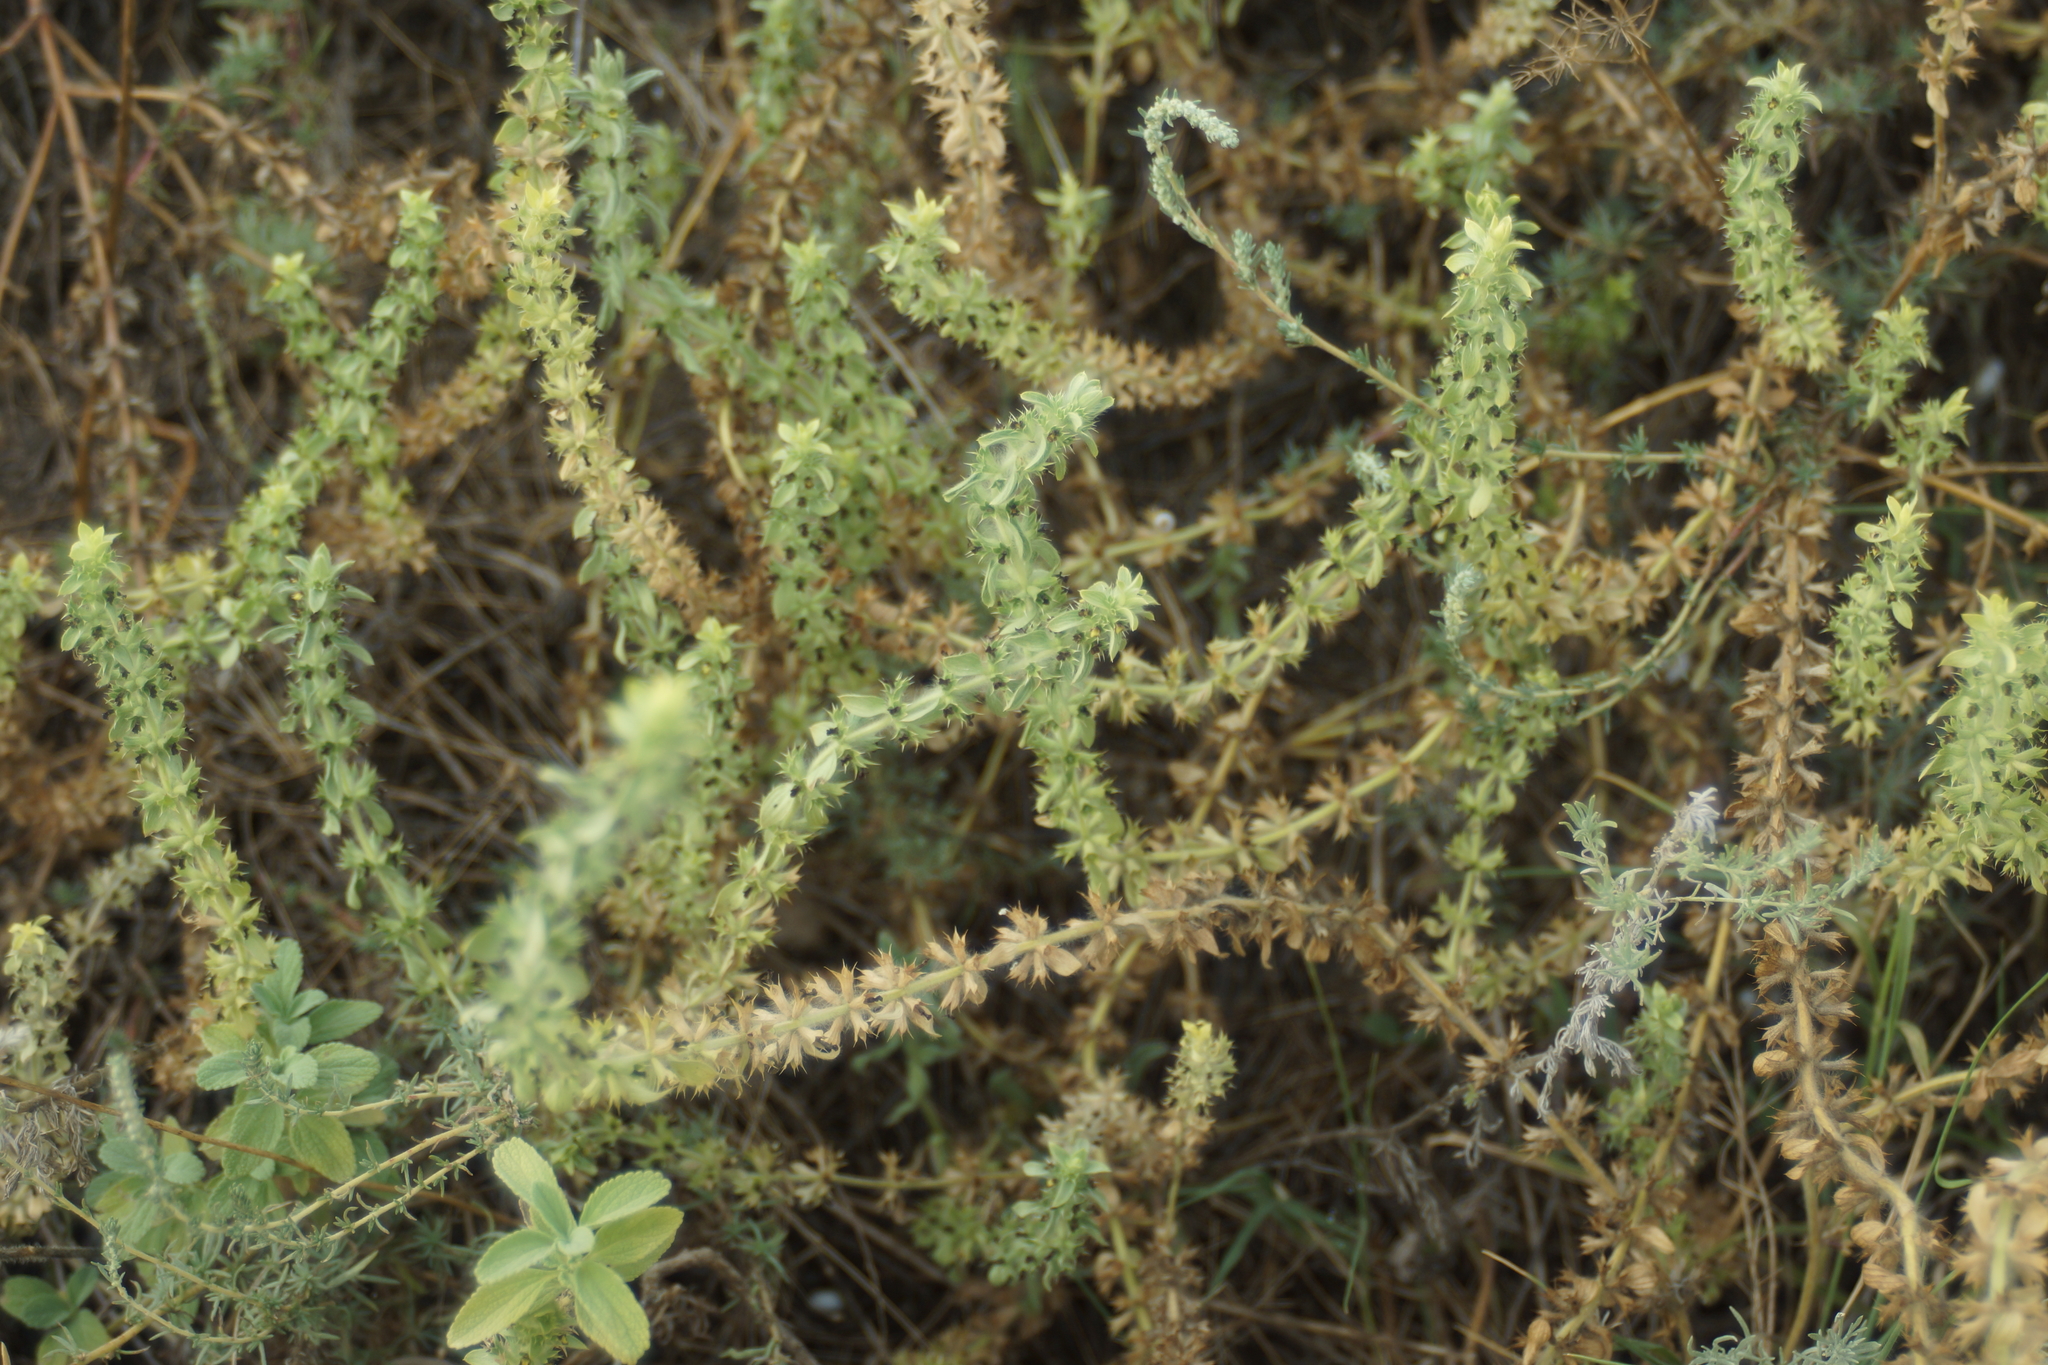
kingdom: Plantae
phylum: Tracheophyta
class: Magnoliopsida
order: Lamiales
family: Lamiaceae
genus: Sideritis
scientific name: Sideritis montana
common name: Mountain ironwort
